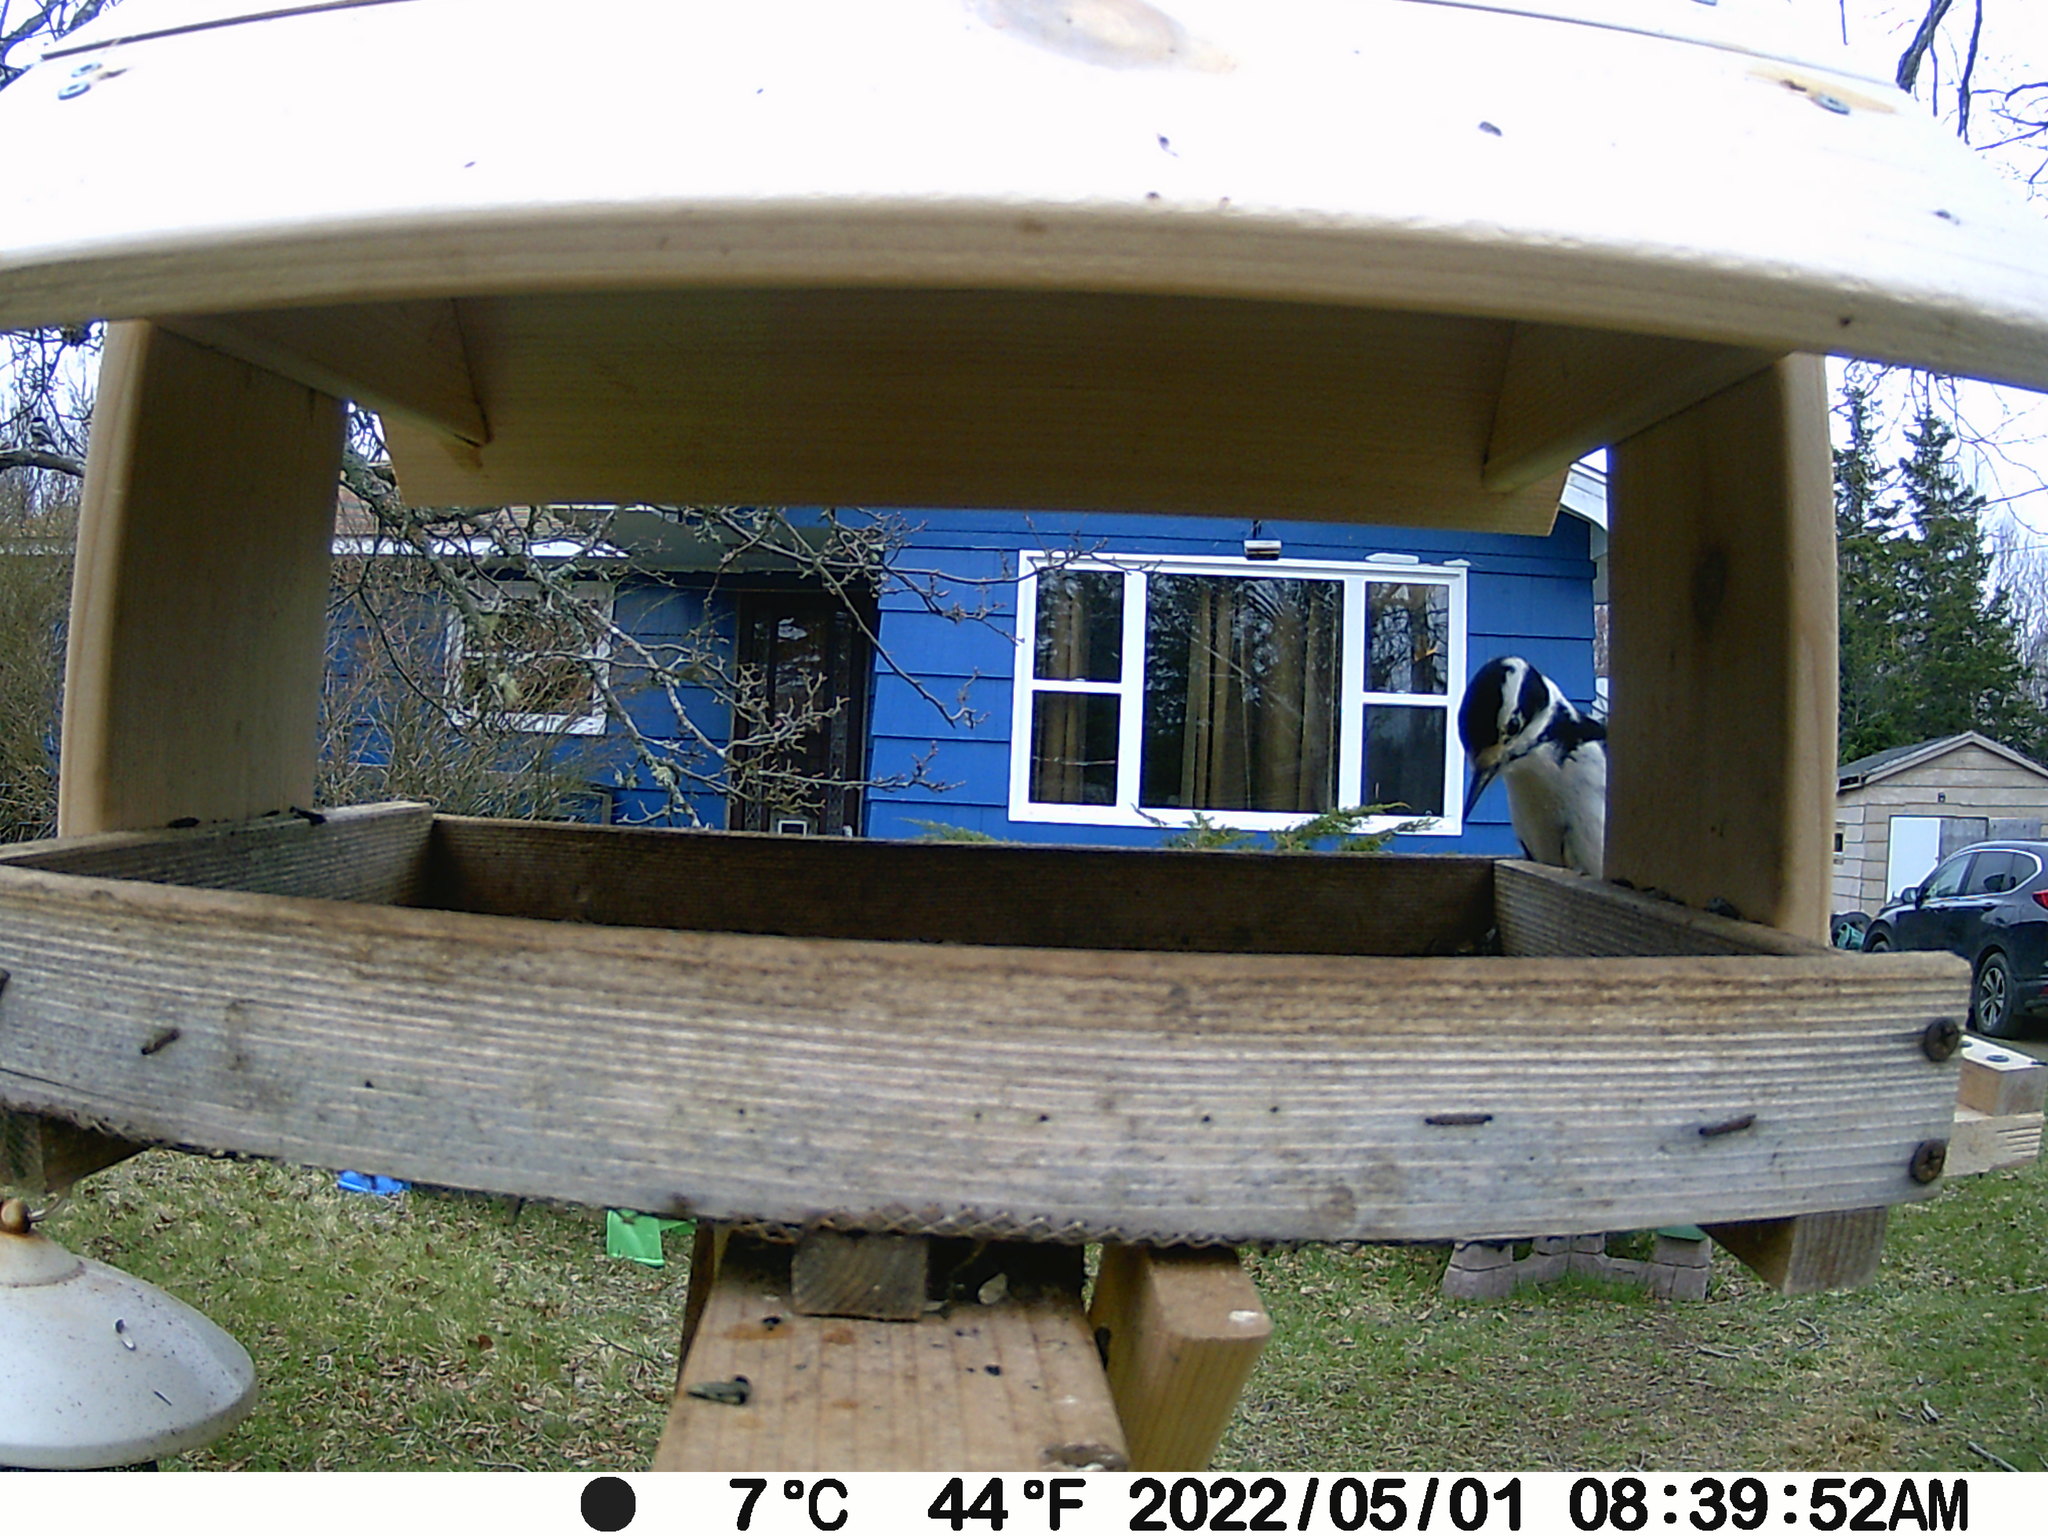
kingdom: Animalia
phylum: Chordata
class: Aves
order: Piciformes
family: Picidae
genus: Dryobates
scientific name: Dryobates pubescens
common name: Downy woodpecker
